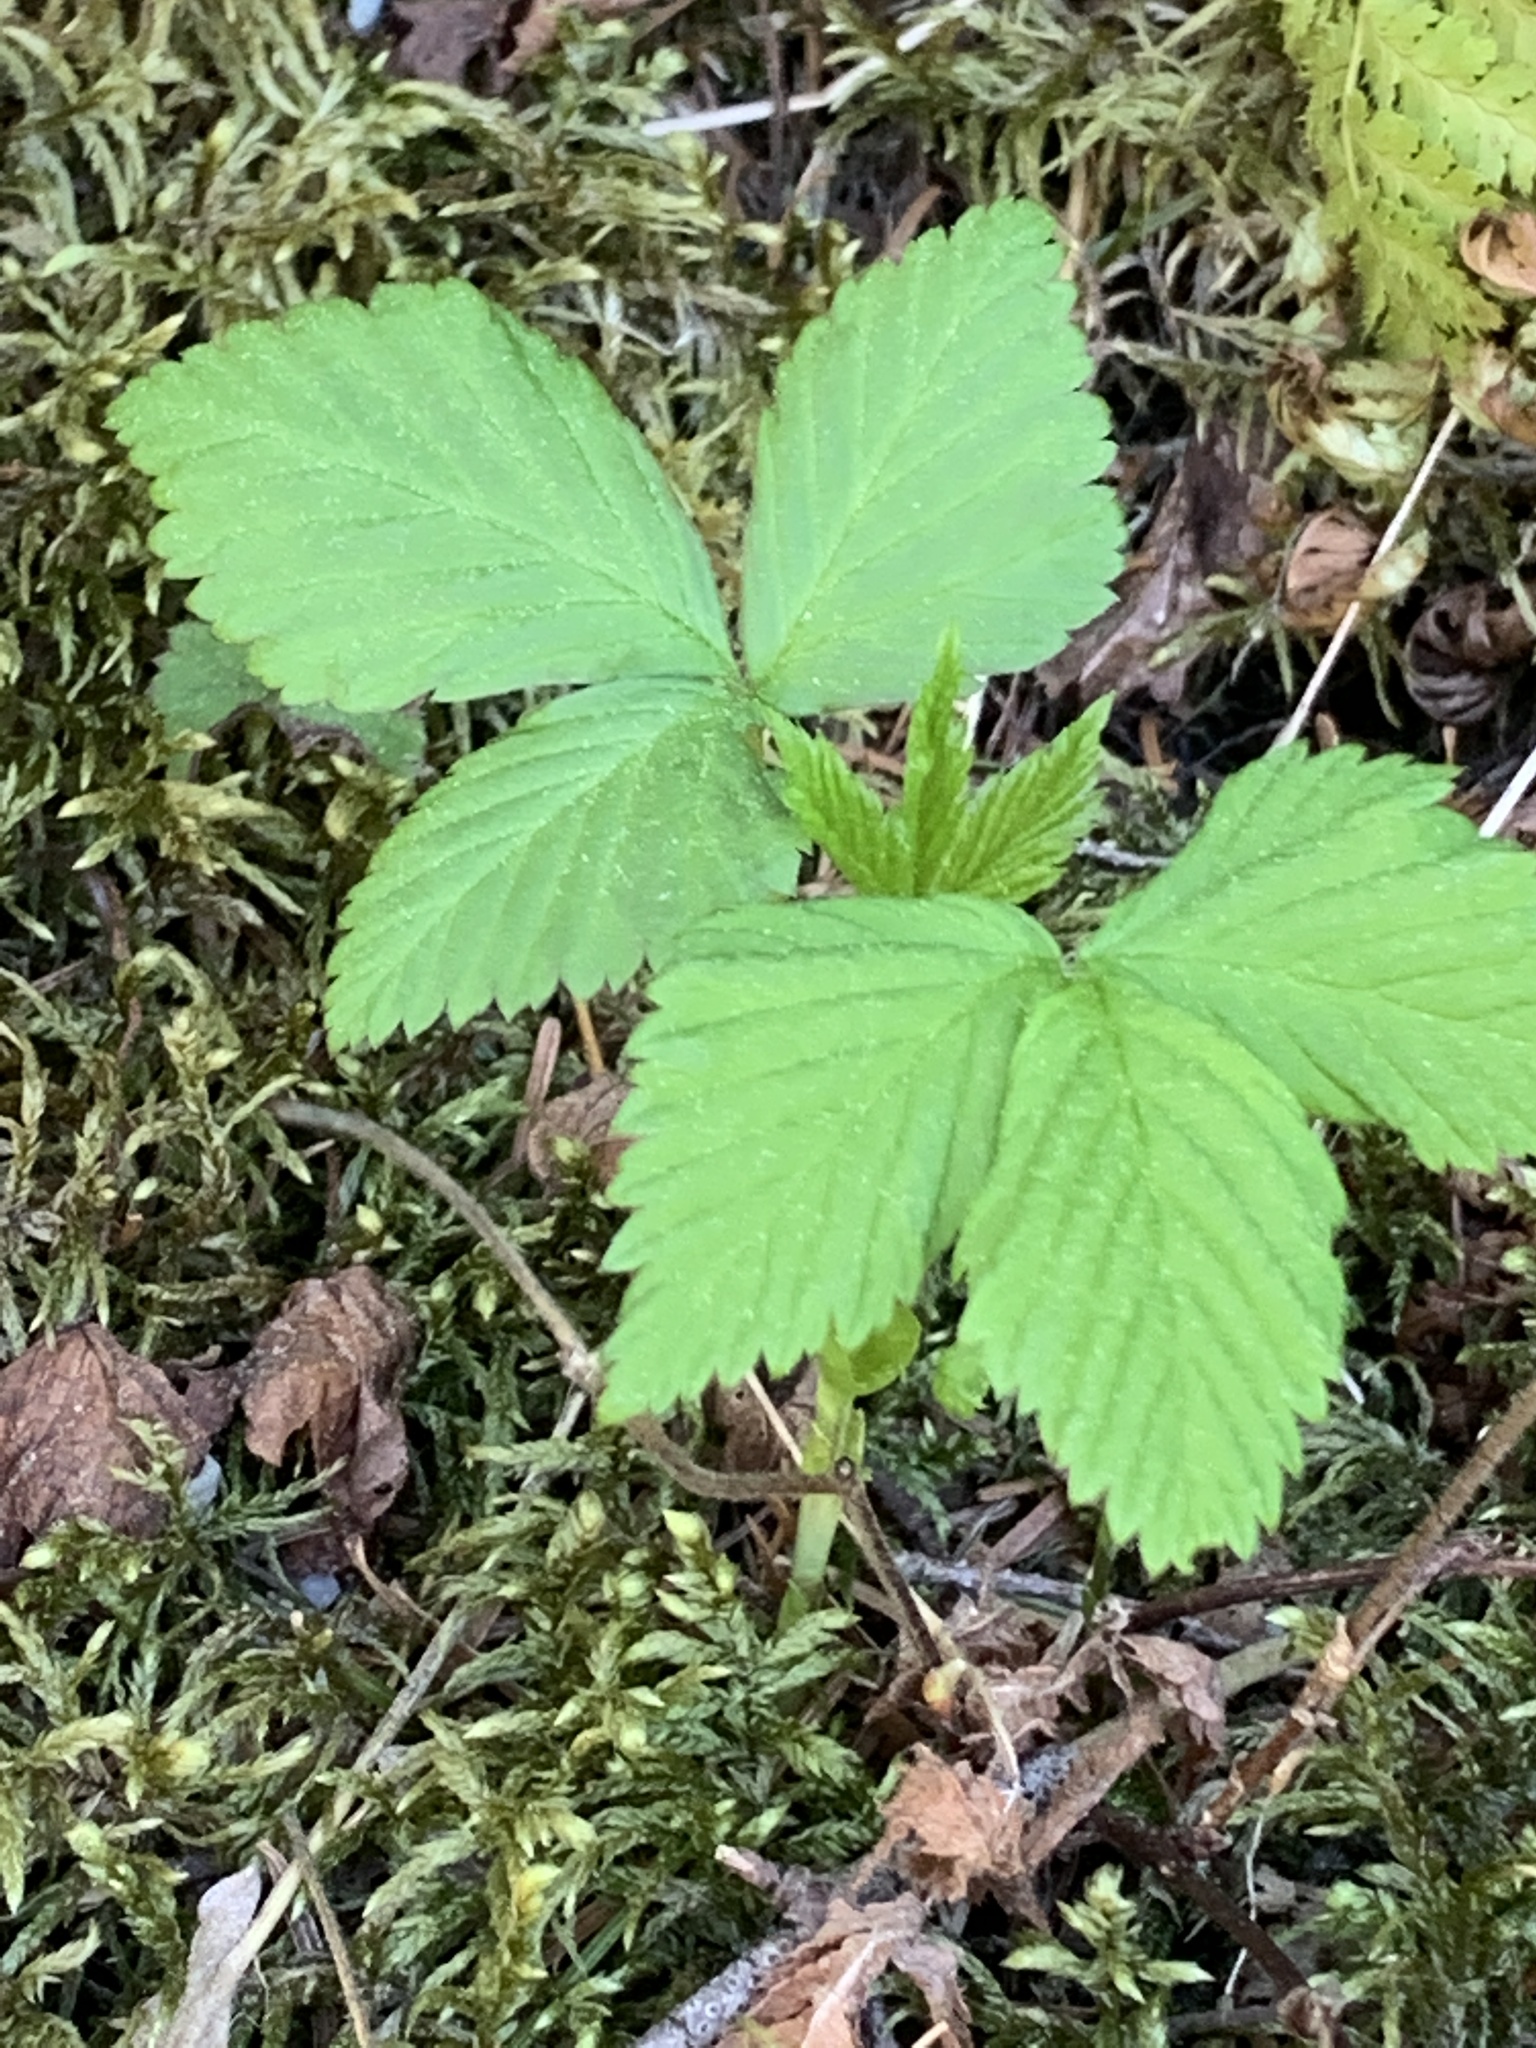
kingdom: Plantae
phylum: Tracheophyta
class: Magnoliopsida
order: Rosales
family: Rosaceae
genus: Rubus
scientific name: Rubus pubescens
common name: Dwarf raspberry
